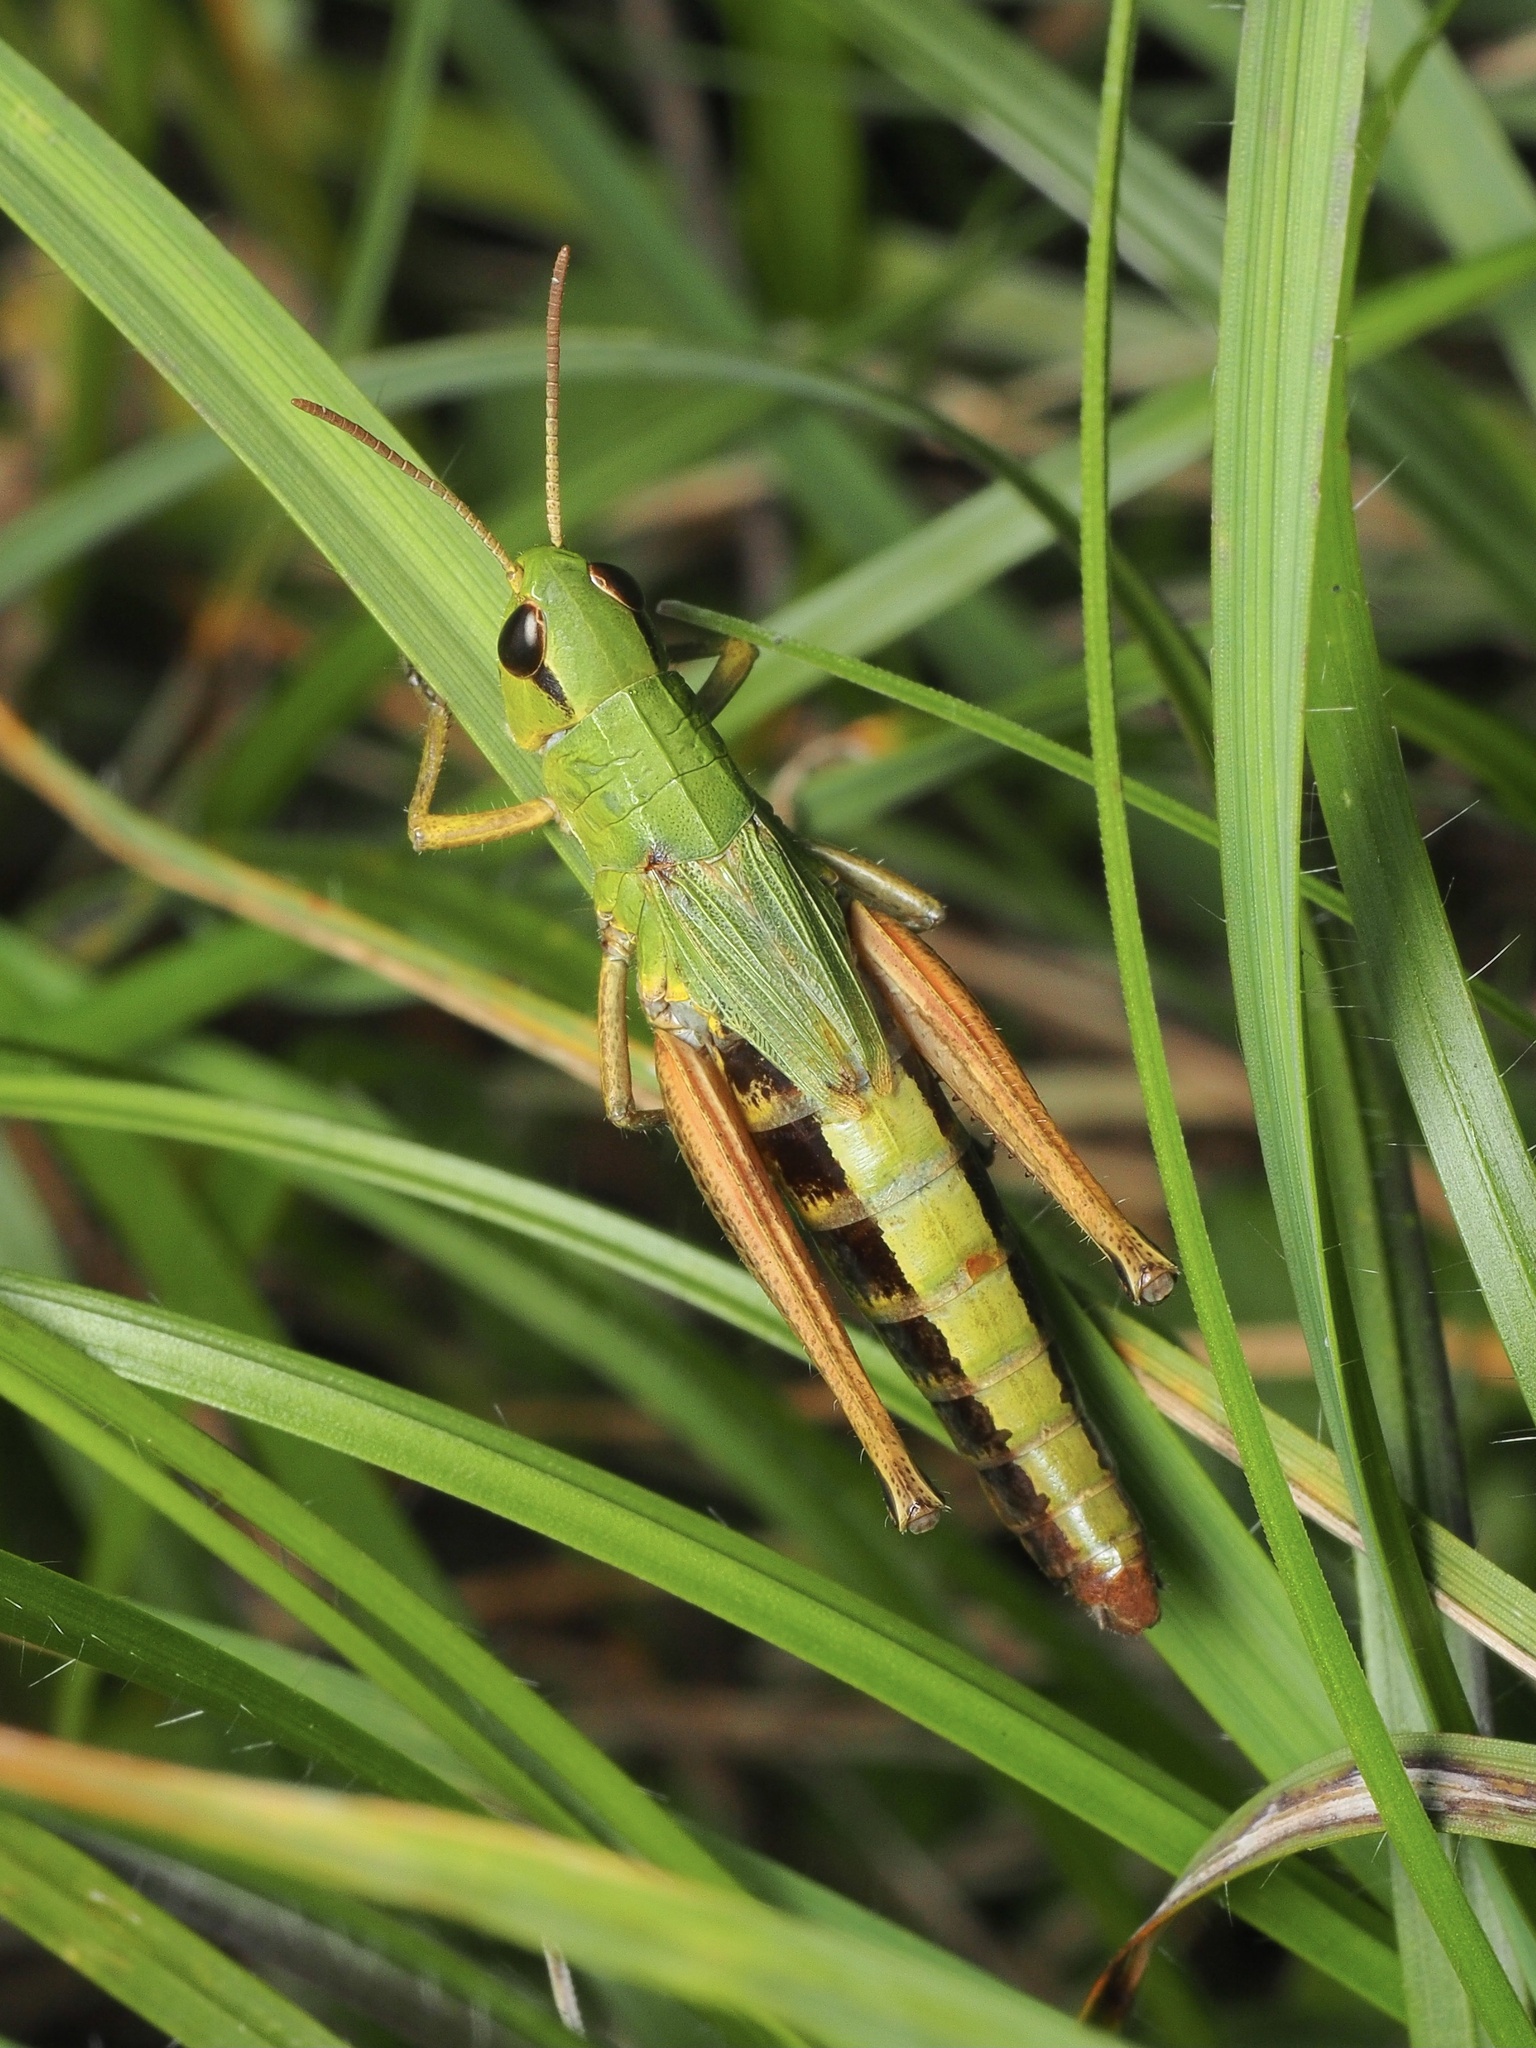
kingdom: Animalia
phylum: Arthropoda
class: Insecta
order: Orthoptera
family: Acrididae
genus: Pseudochorthippus
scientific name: Pseudochorthippus parallelus
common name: Meadow grasshopper
